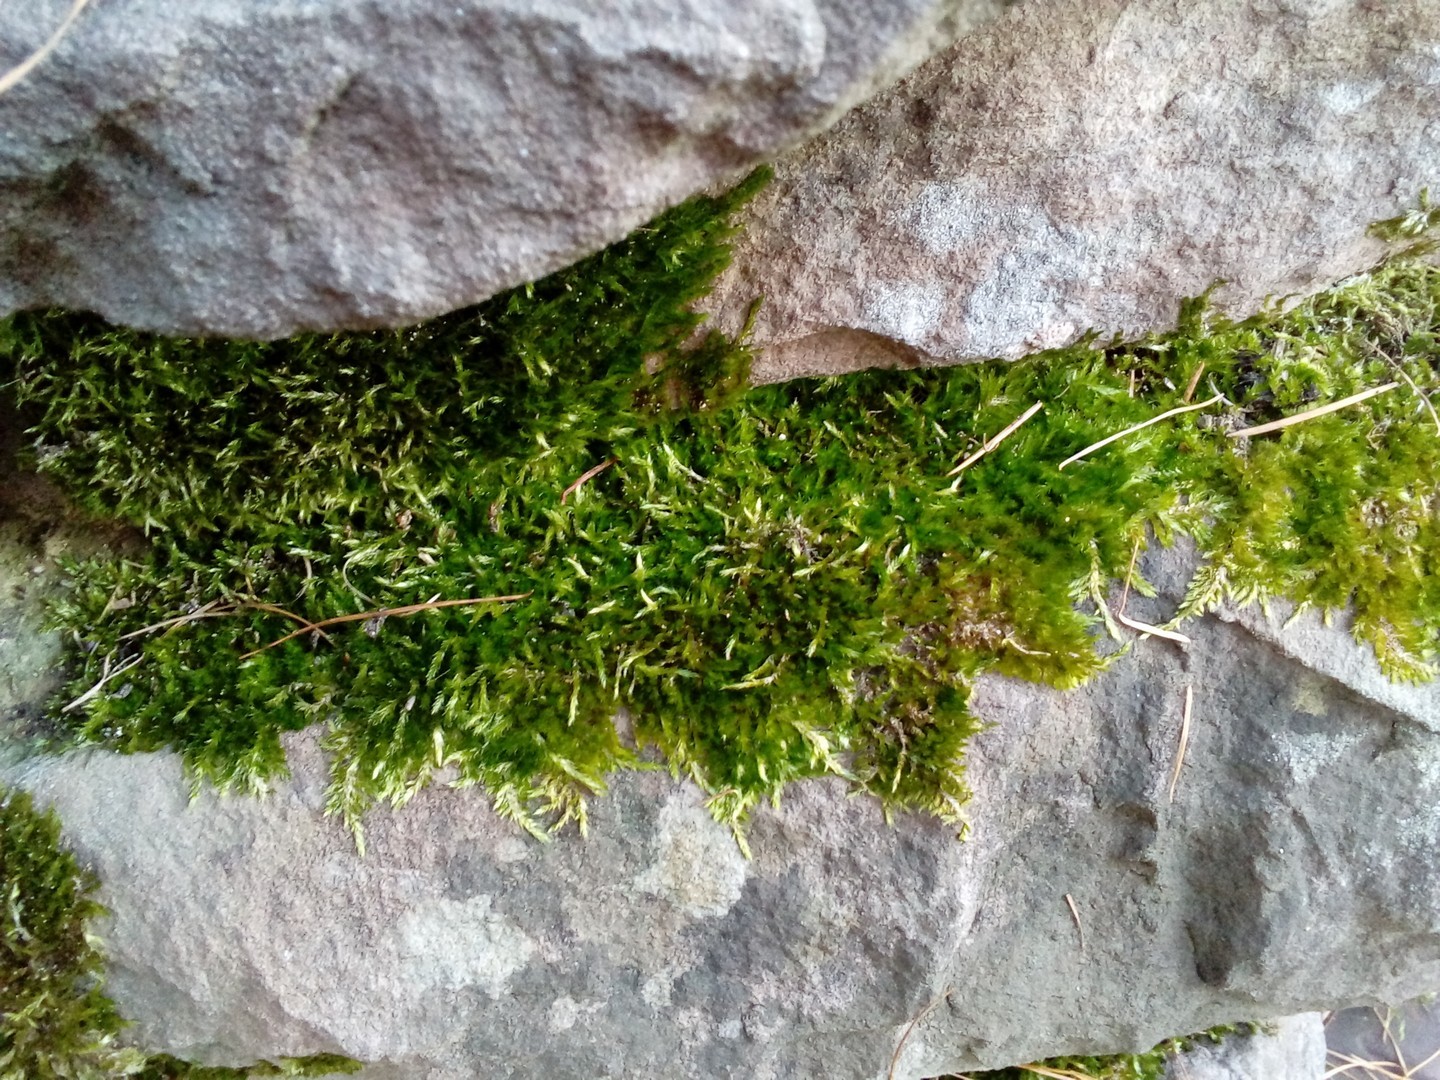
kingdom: Plantae
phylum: Bryophyta
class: Bryopsida
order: Hypnales
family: Brachytheciaceae
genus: Homalothecium
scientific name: Homalothecium sericeum
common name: Silky wall feather-moss
